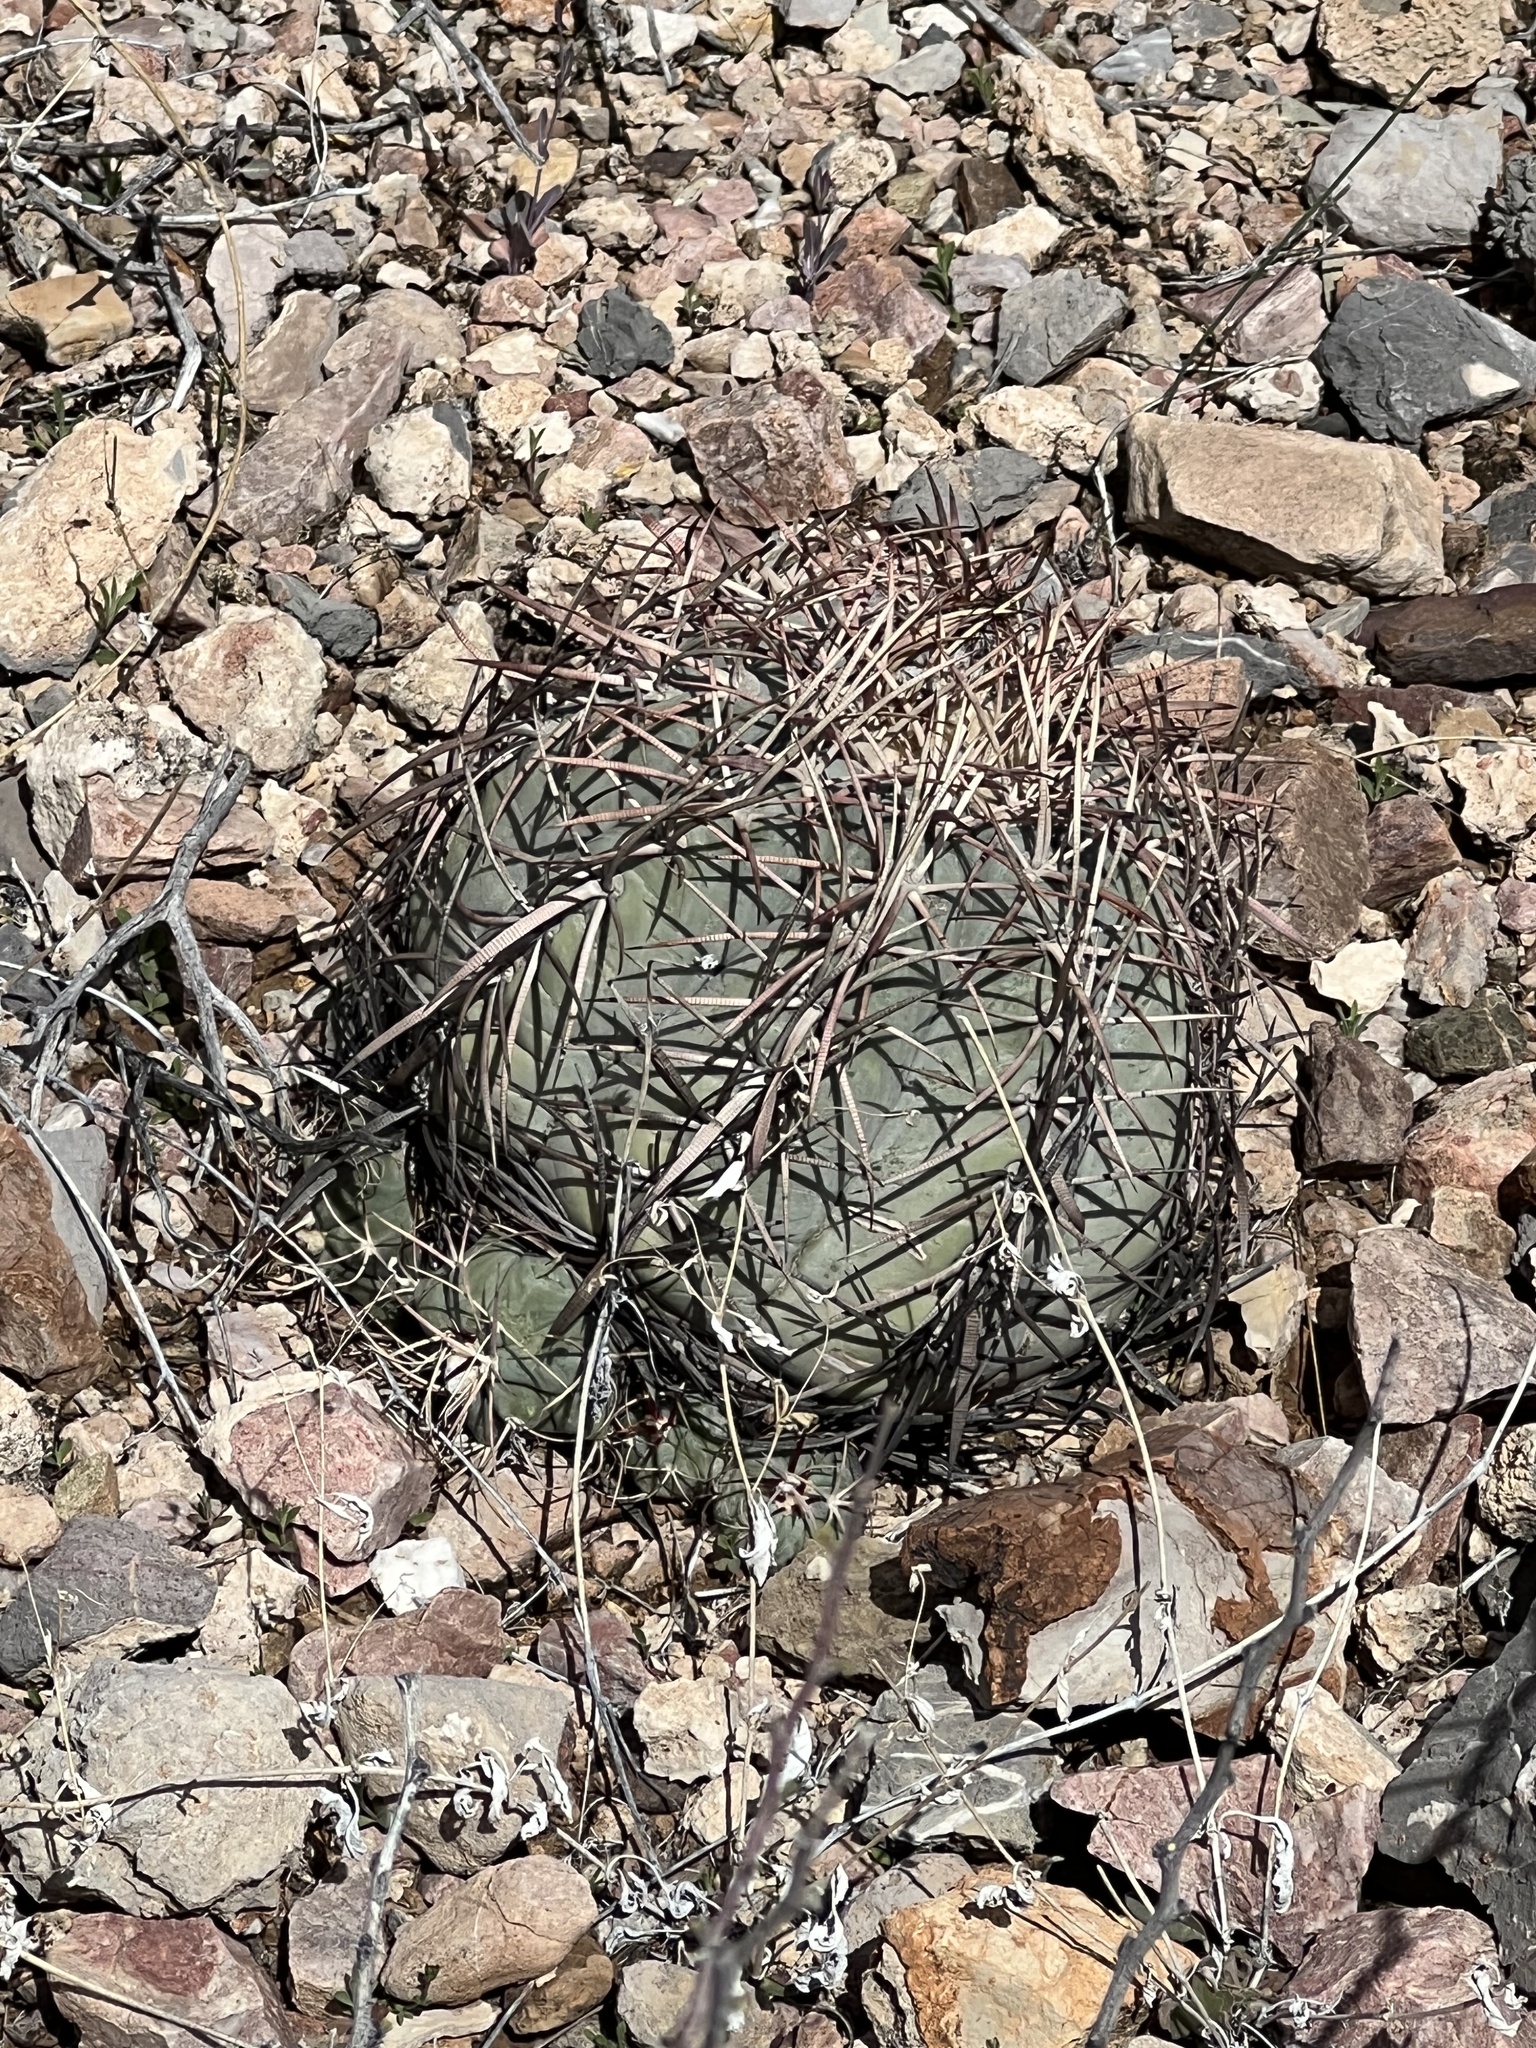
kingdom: Plantae
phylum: Tracheophyta
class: Magnoliopsida
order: Caryophyllales
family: Cactaceae
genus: Echinocactus
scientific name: Echinocactus horizonthalonius
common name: Devilshead
